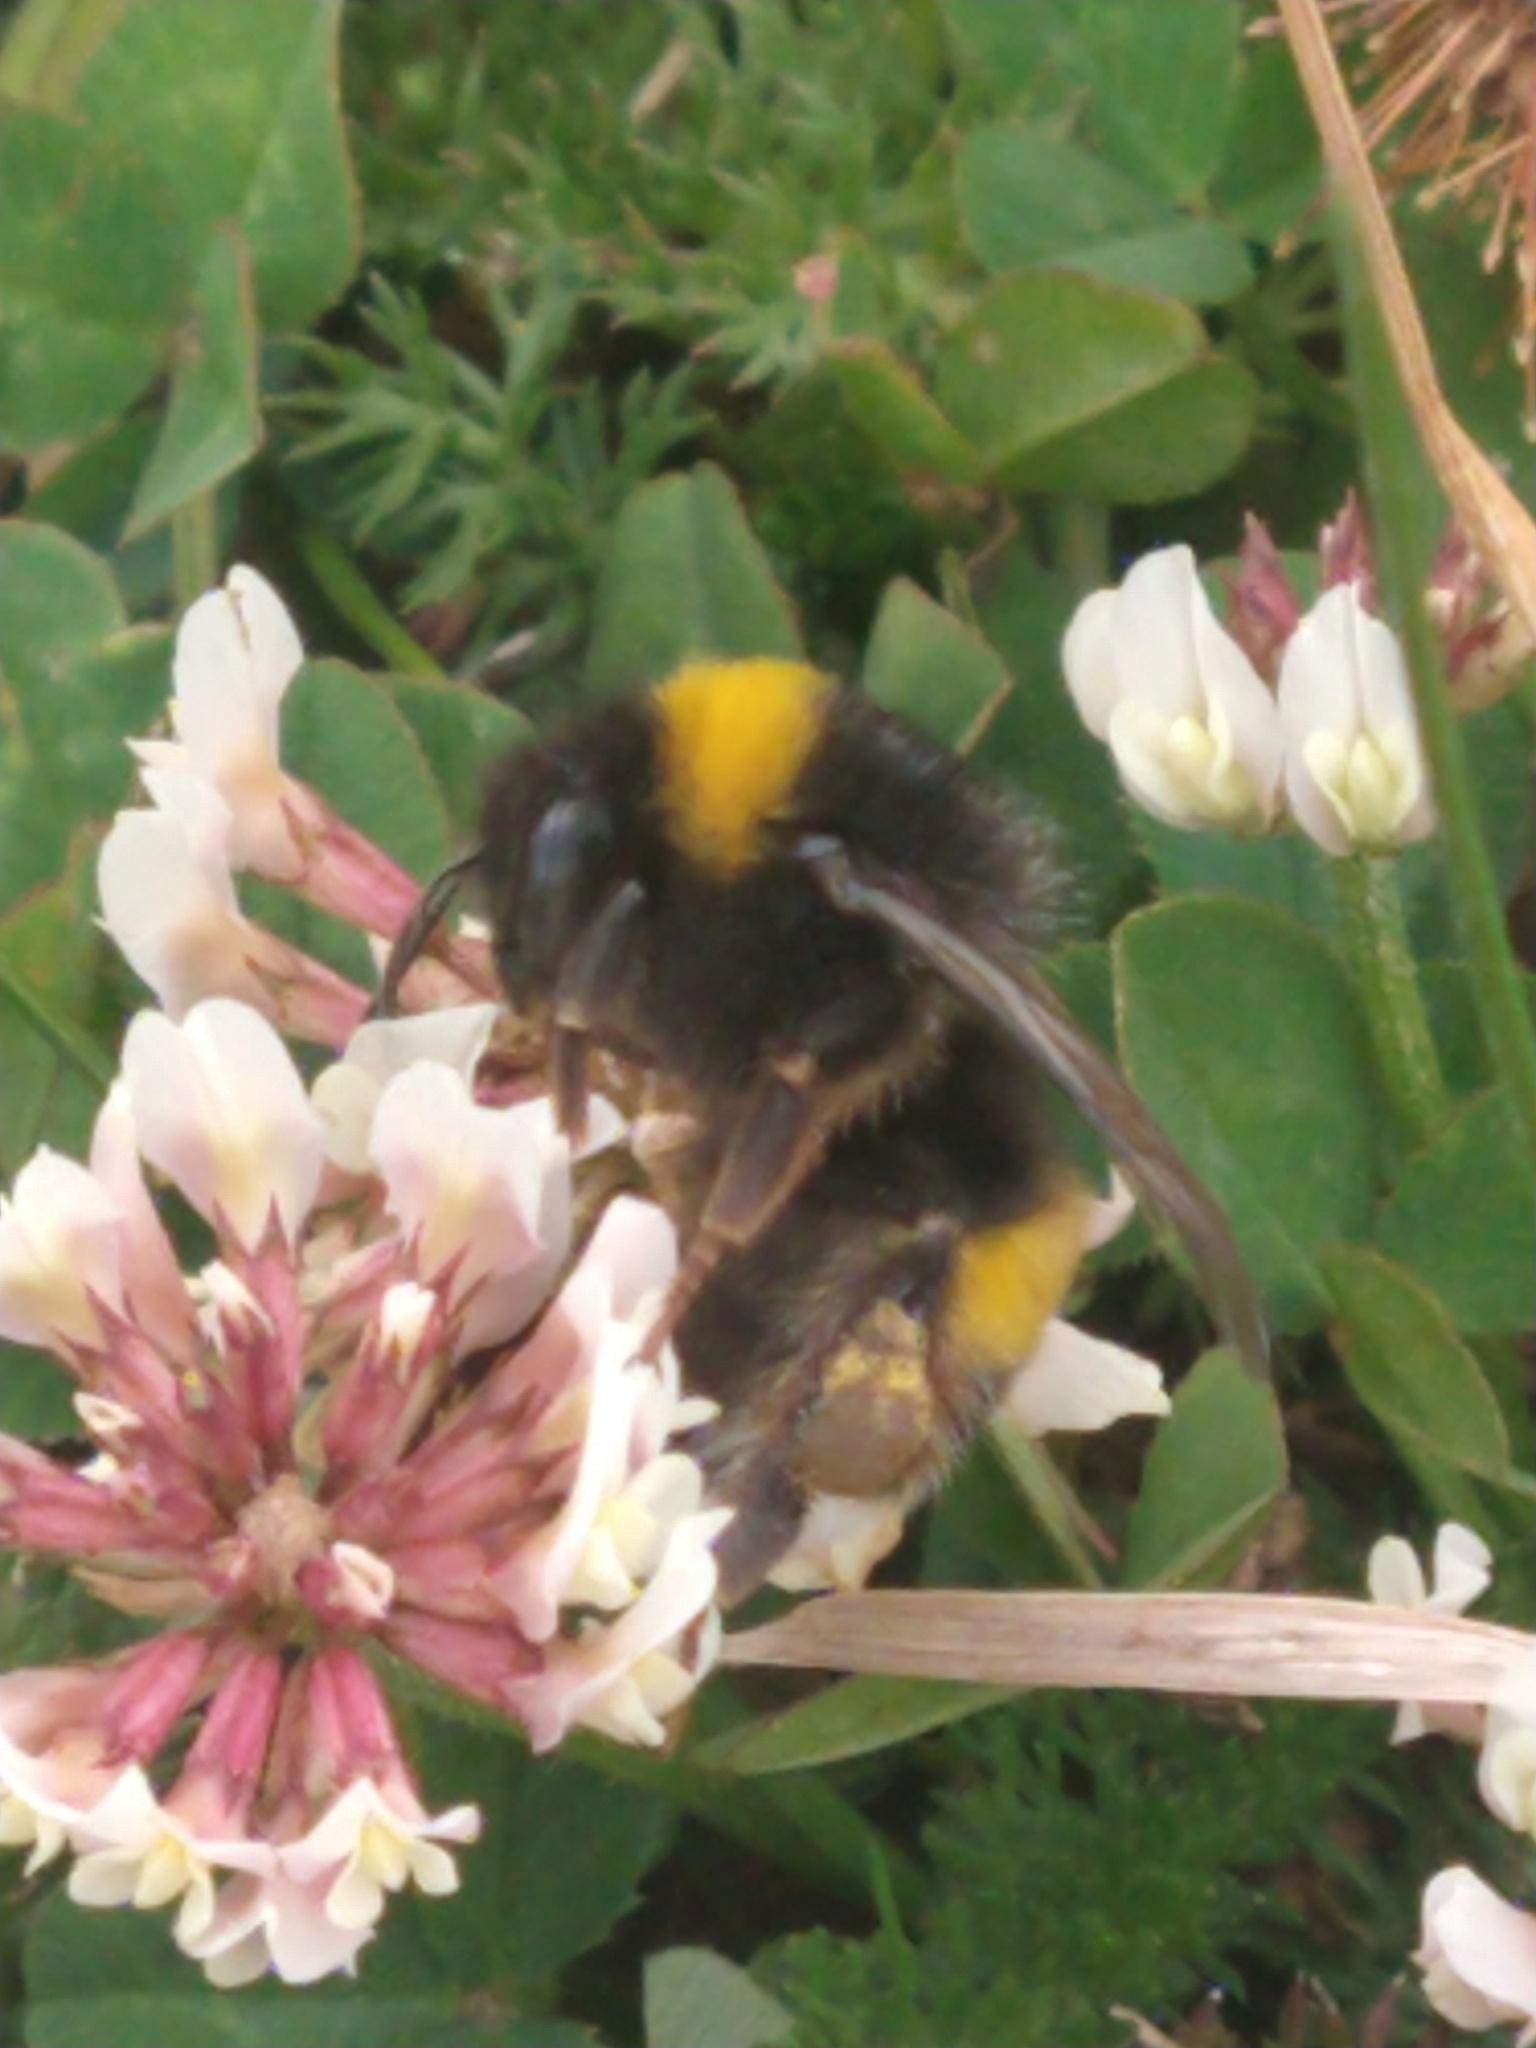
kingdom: Animalia
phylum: Arthropoda
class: Insecta
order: Hymenoptera
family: Apidae
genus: Bombus
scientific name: Bombus terrestris
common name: Buff-tailed bumblebee
